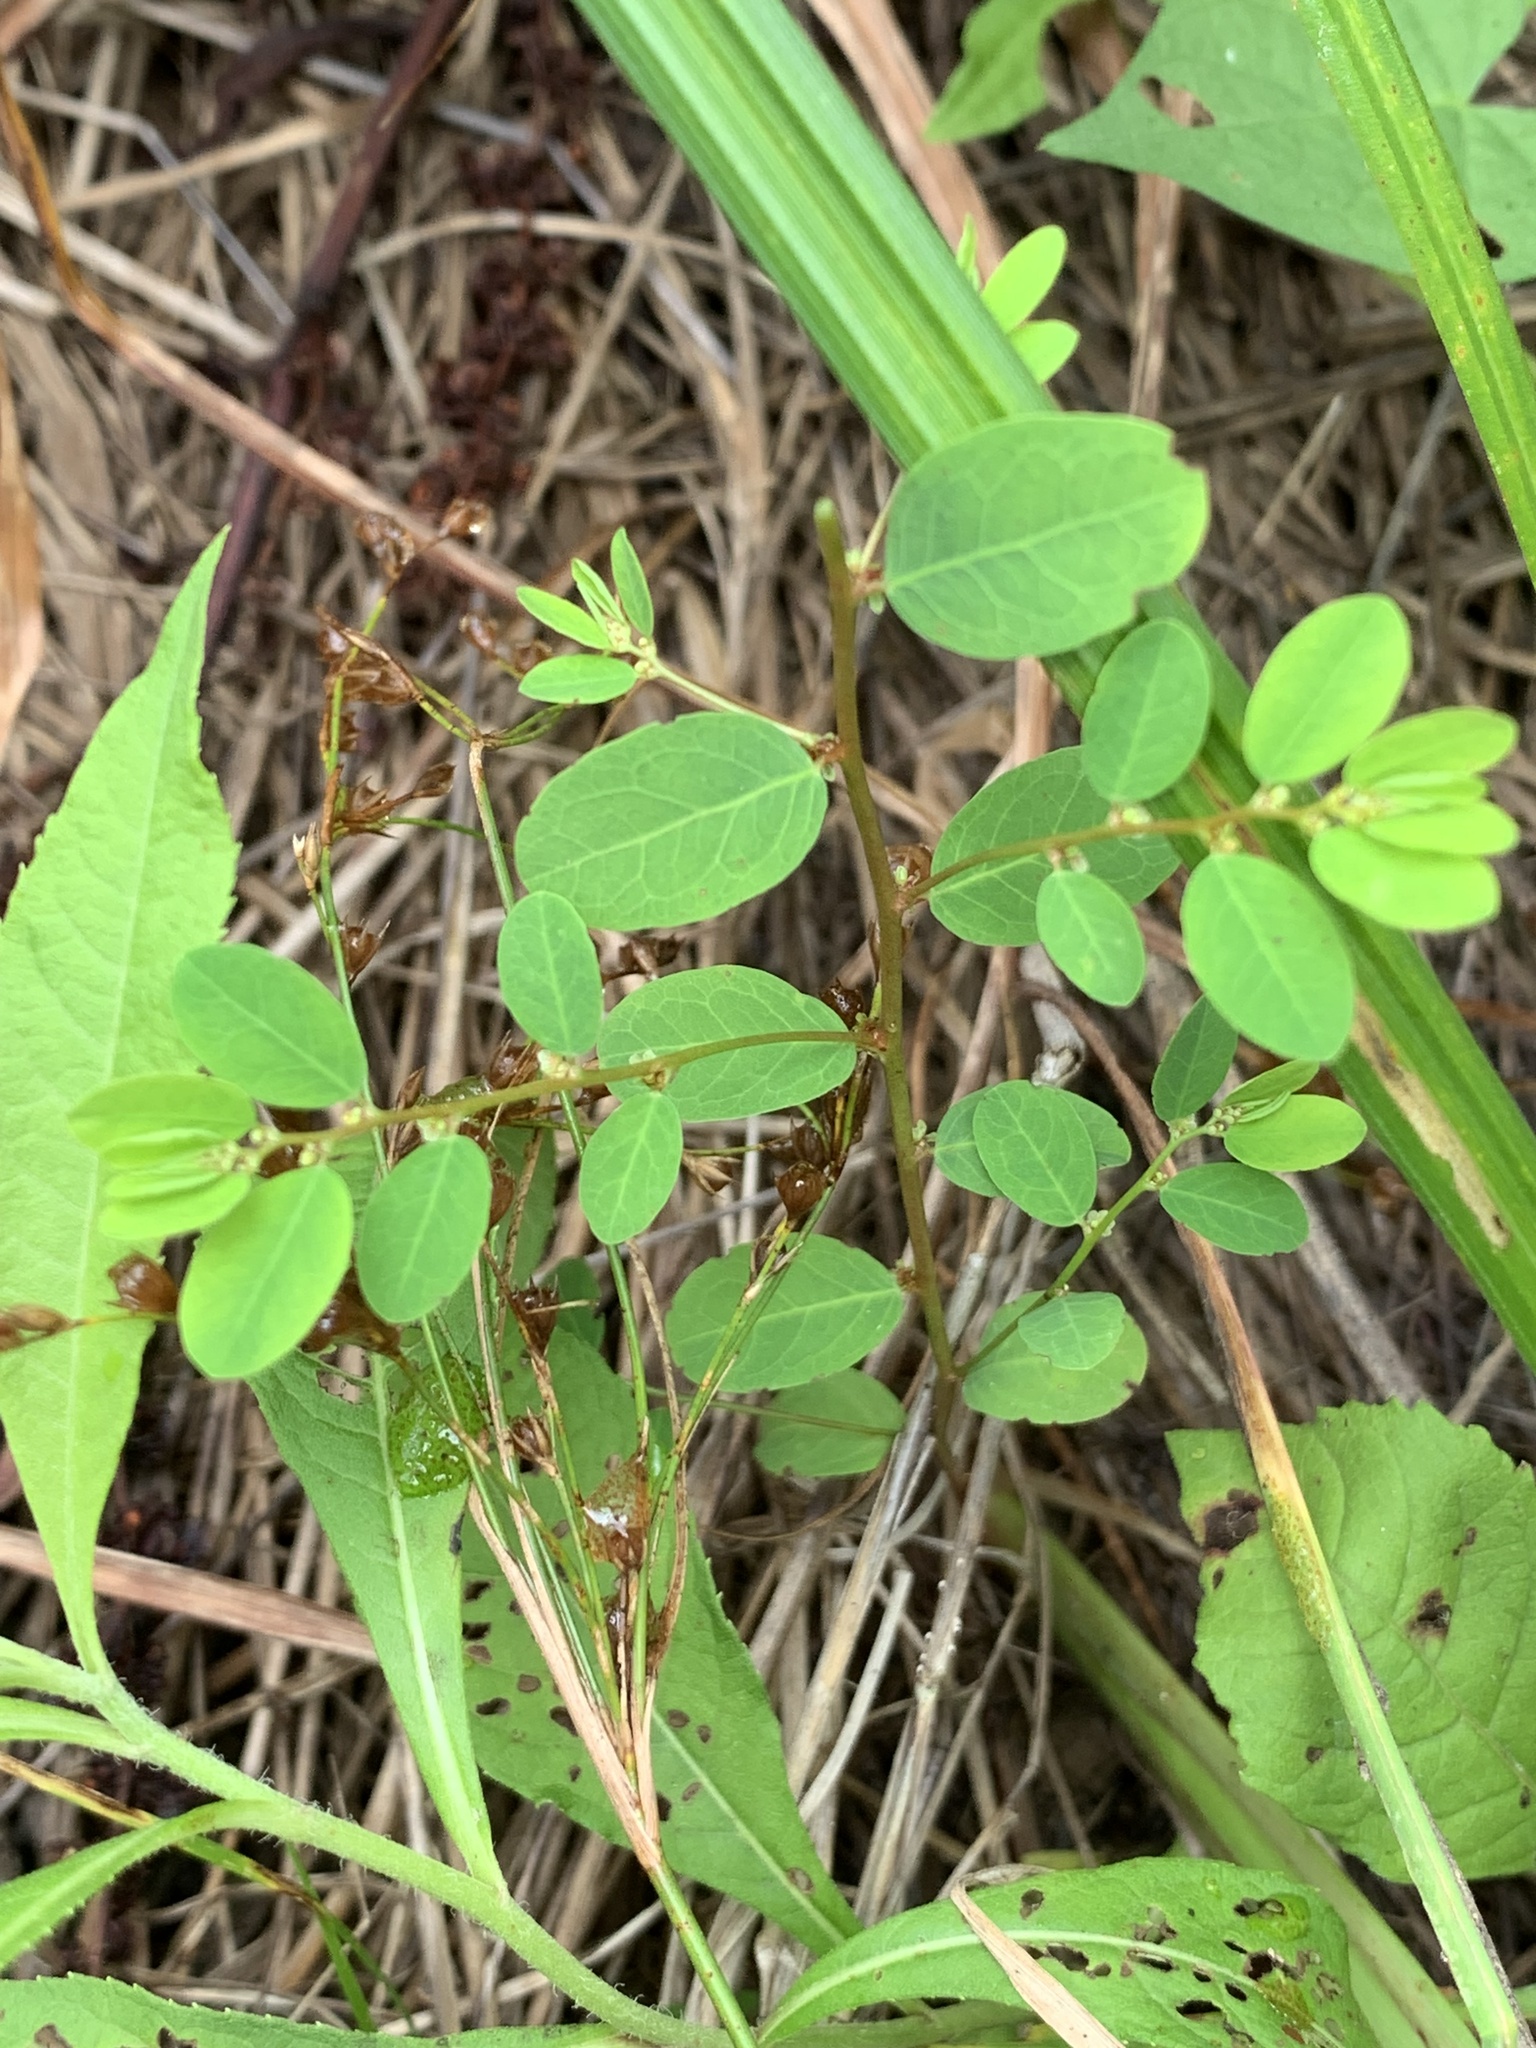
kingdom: Plantae
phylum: Tracheophyta
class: Magnoliopsida
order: Malpighiales
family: Phyllanthaceae
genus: Phyllanthus
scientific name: Phyllanthus caroliniensis
